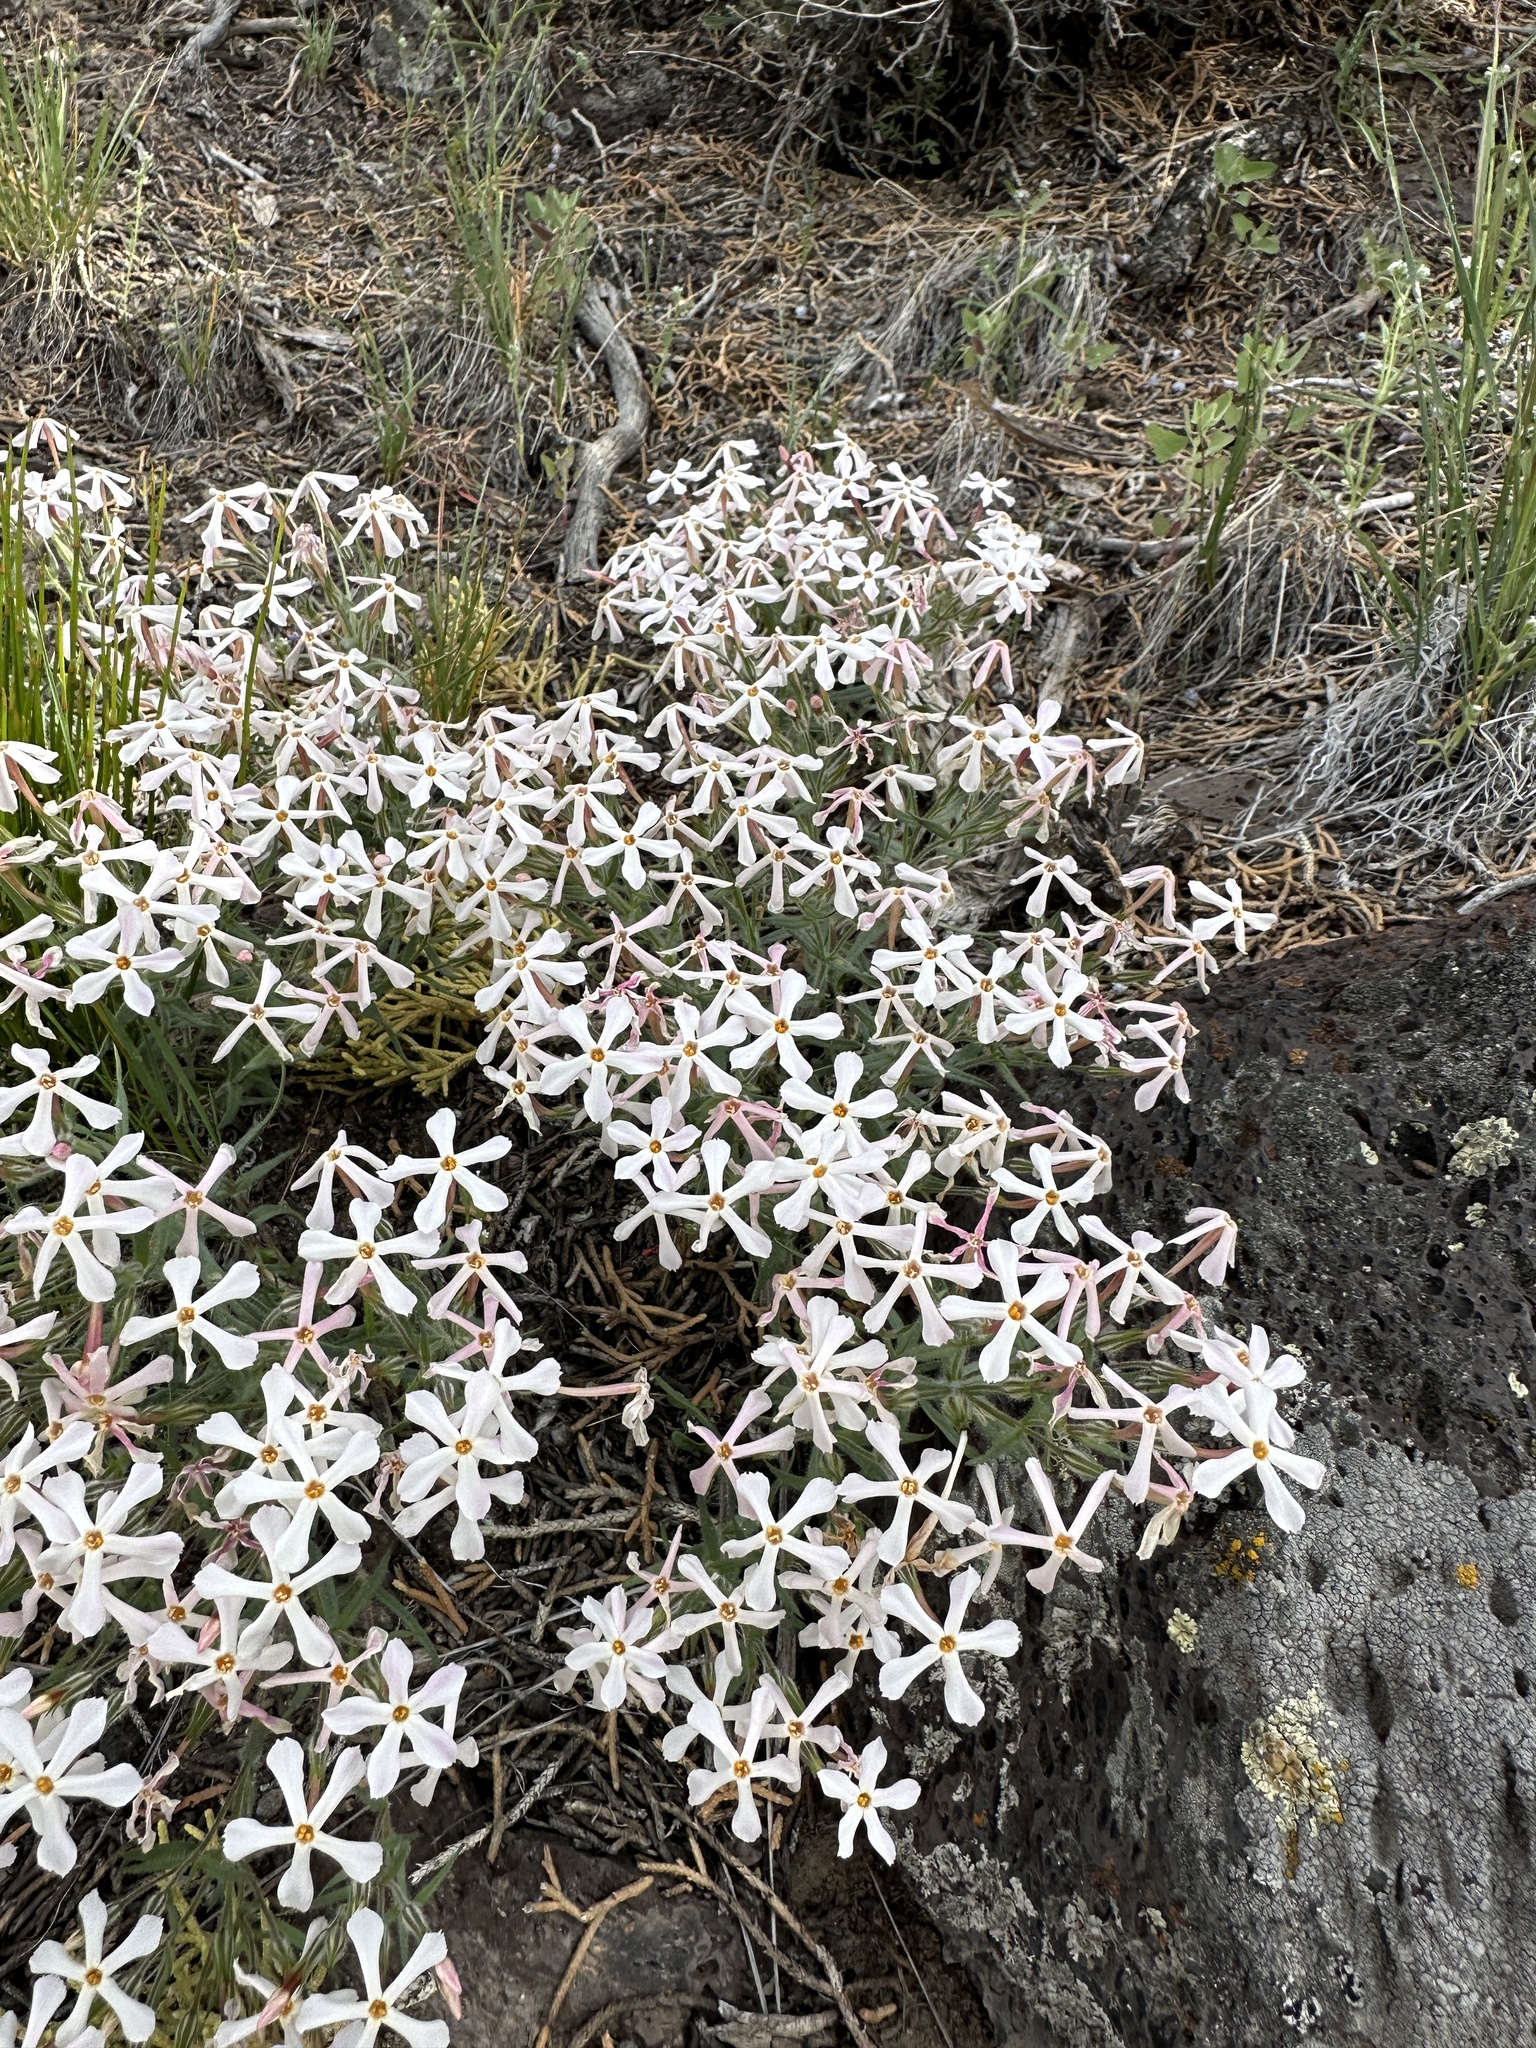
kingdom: Plantae
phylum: Tracheophyta
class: Magnoliopsida
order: Ericales
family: Polemoniaceae
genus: Phlox
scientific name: Phlox longifolia
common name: Longleaf phlox
